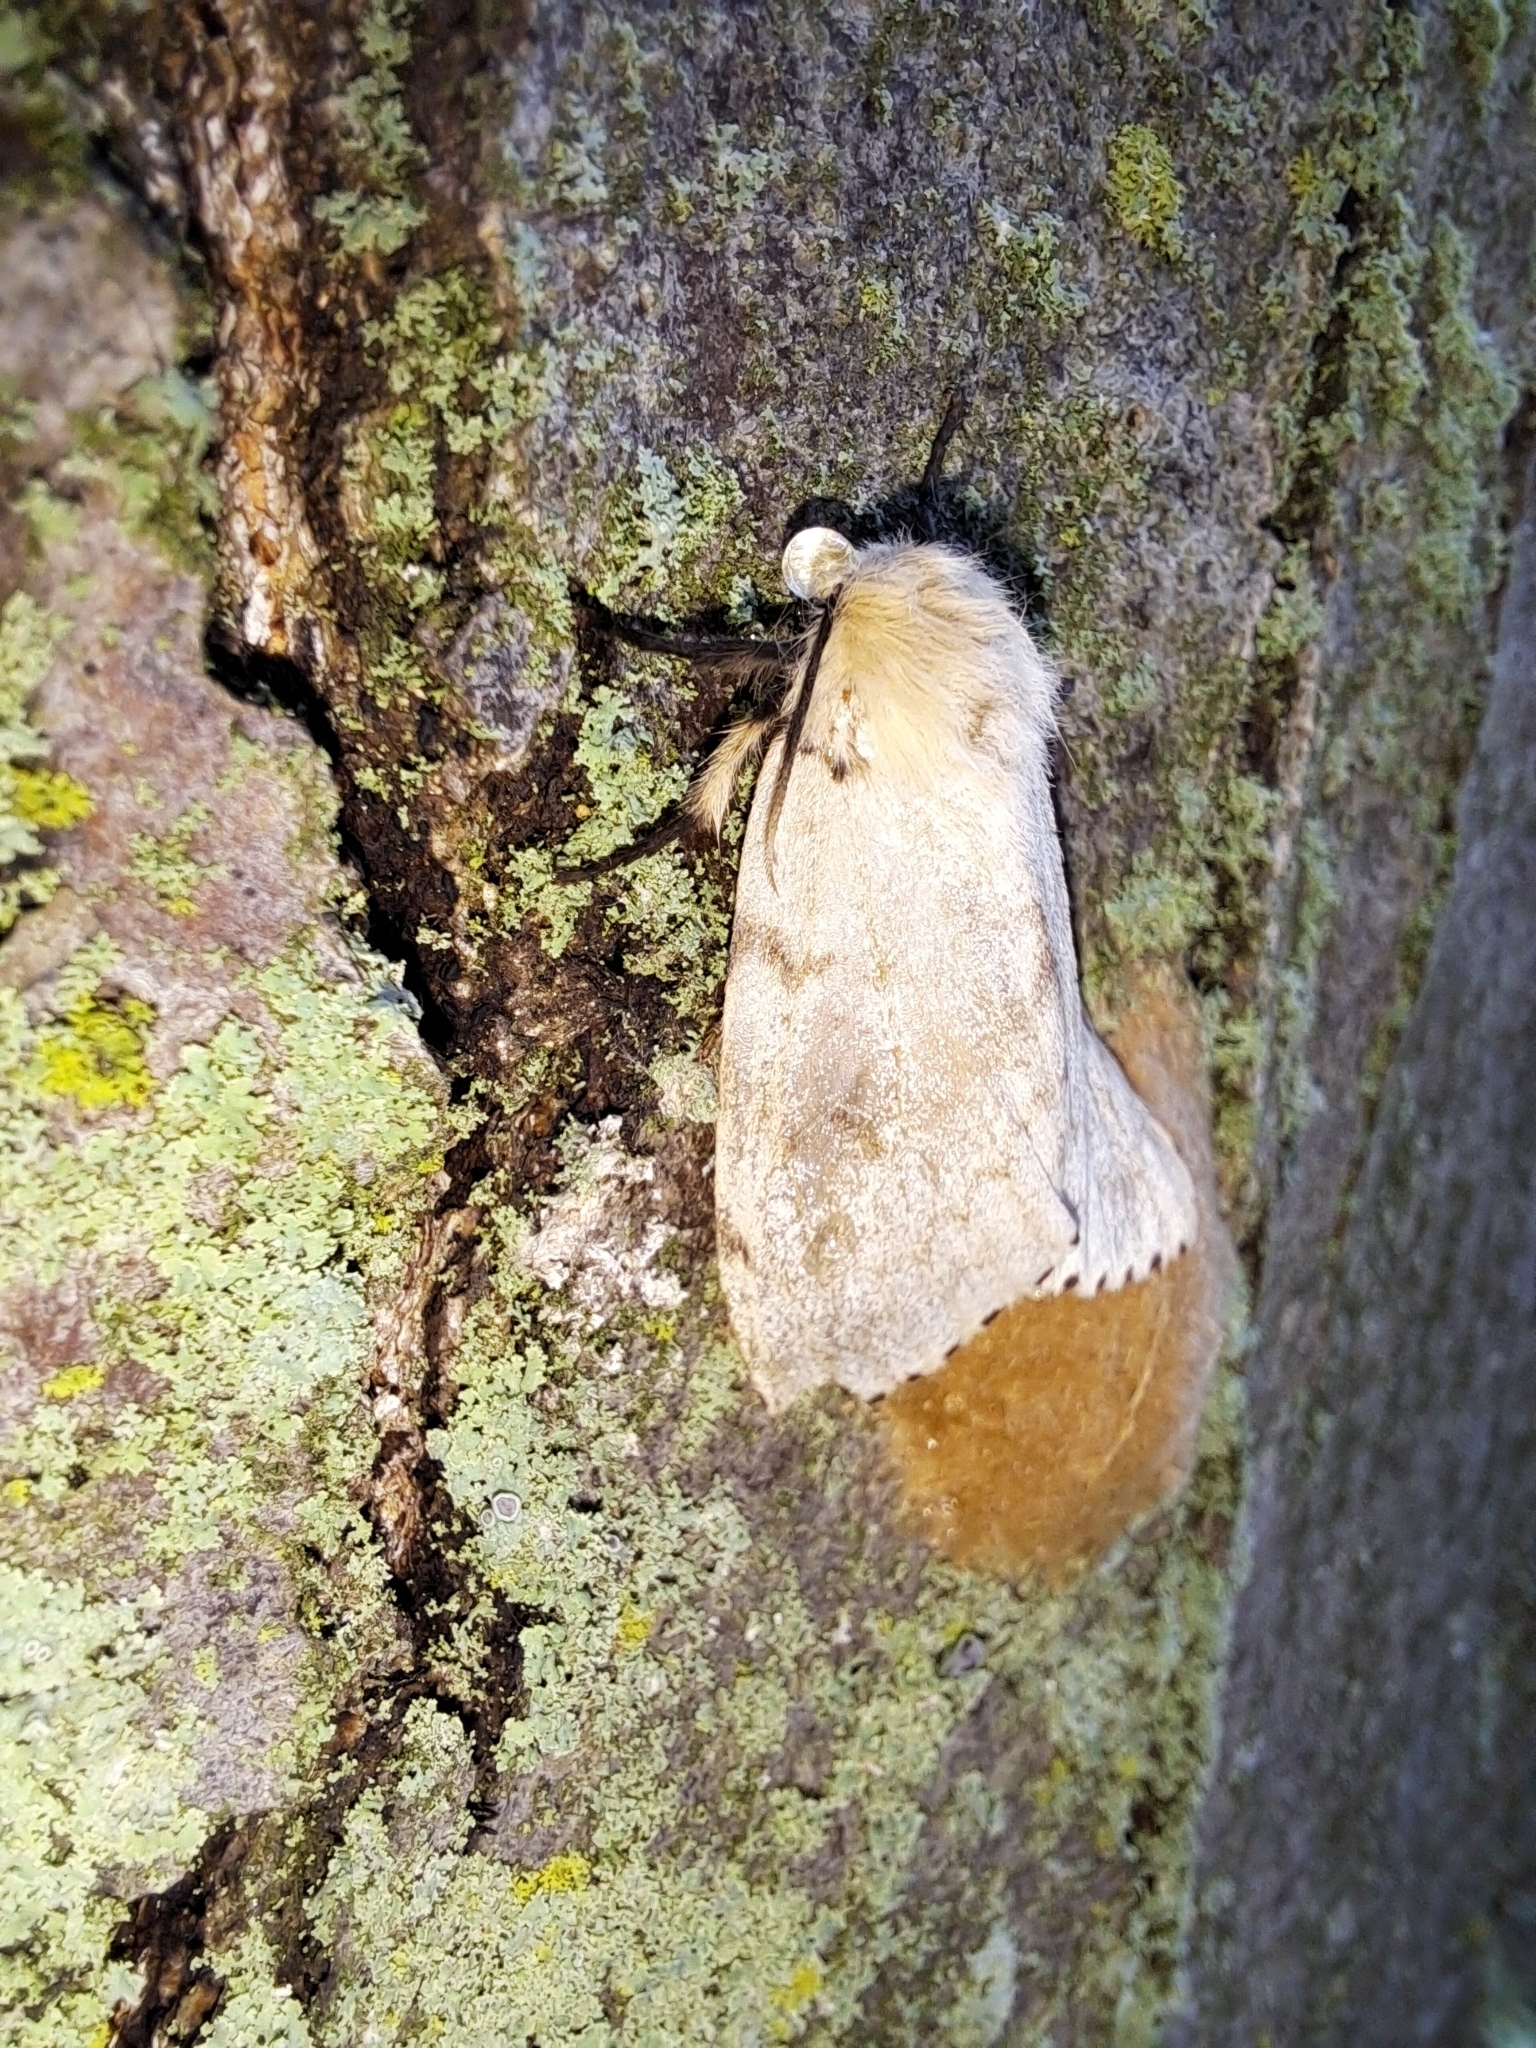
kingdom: Animalia
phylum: Arthropoda
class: Insecta
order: Lepidoptera
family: Erebidae
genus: Lymantria
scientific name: Lymantria dispar
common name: Gypsy moth
